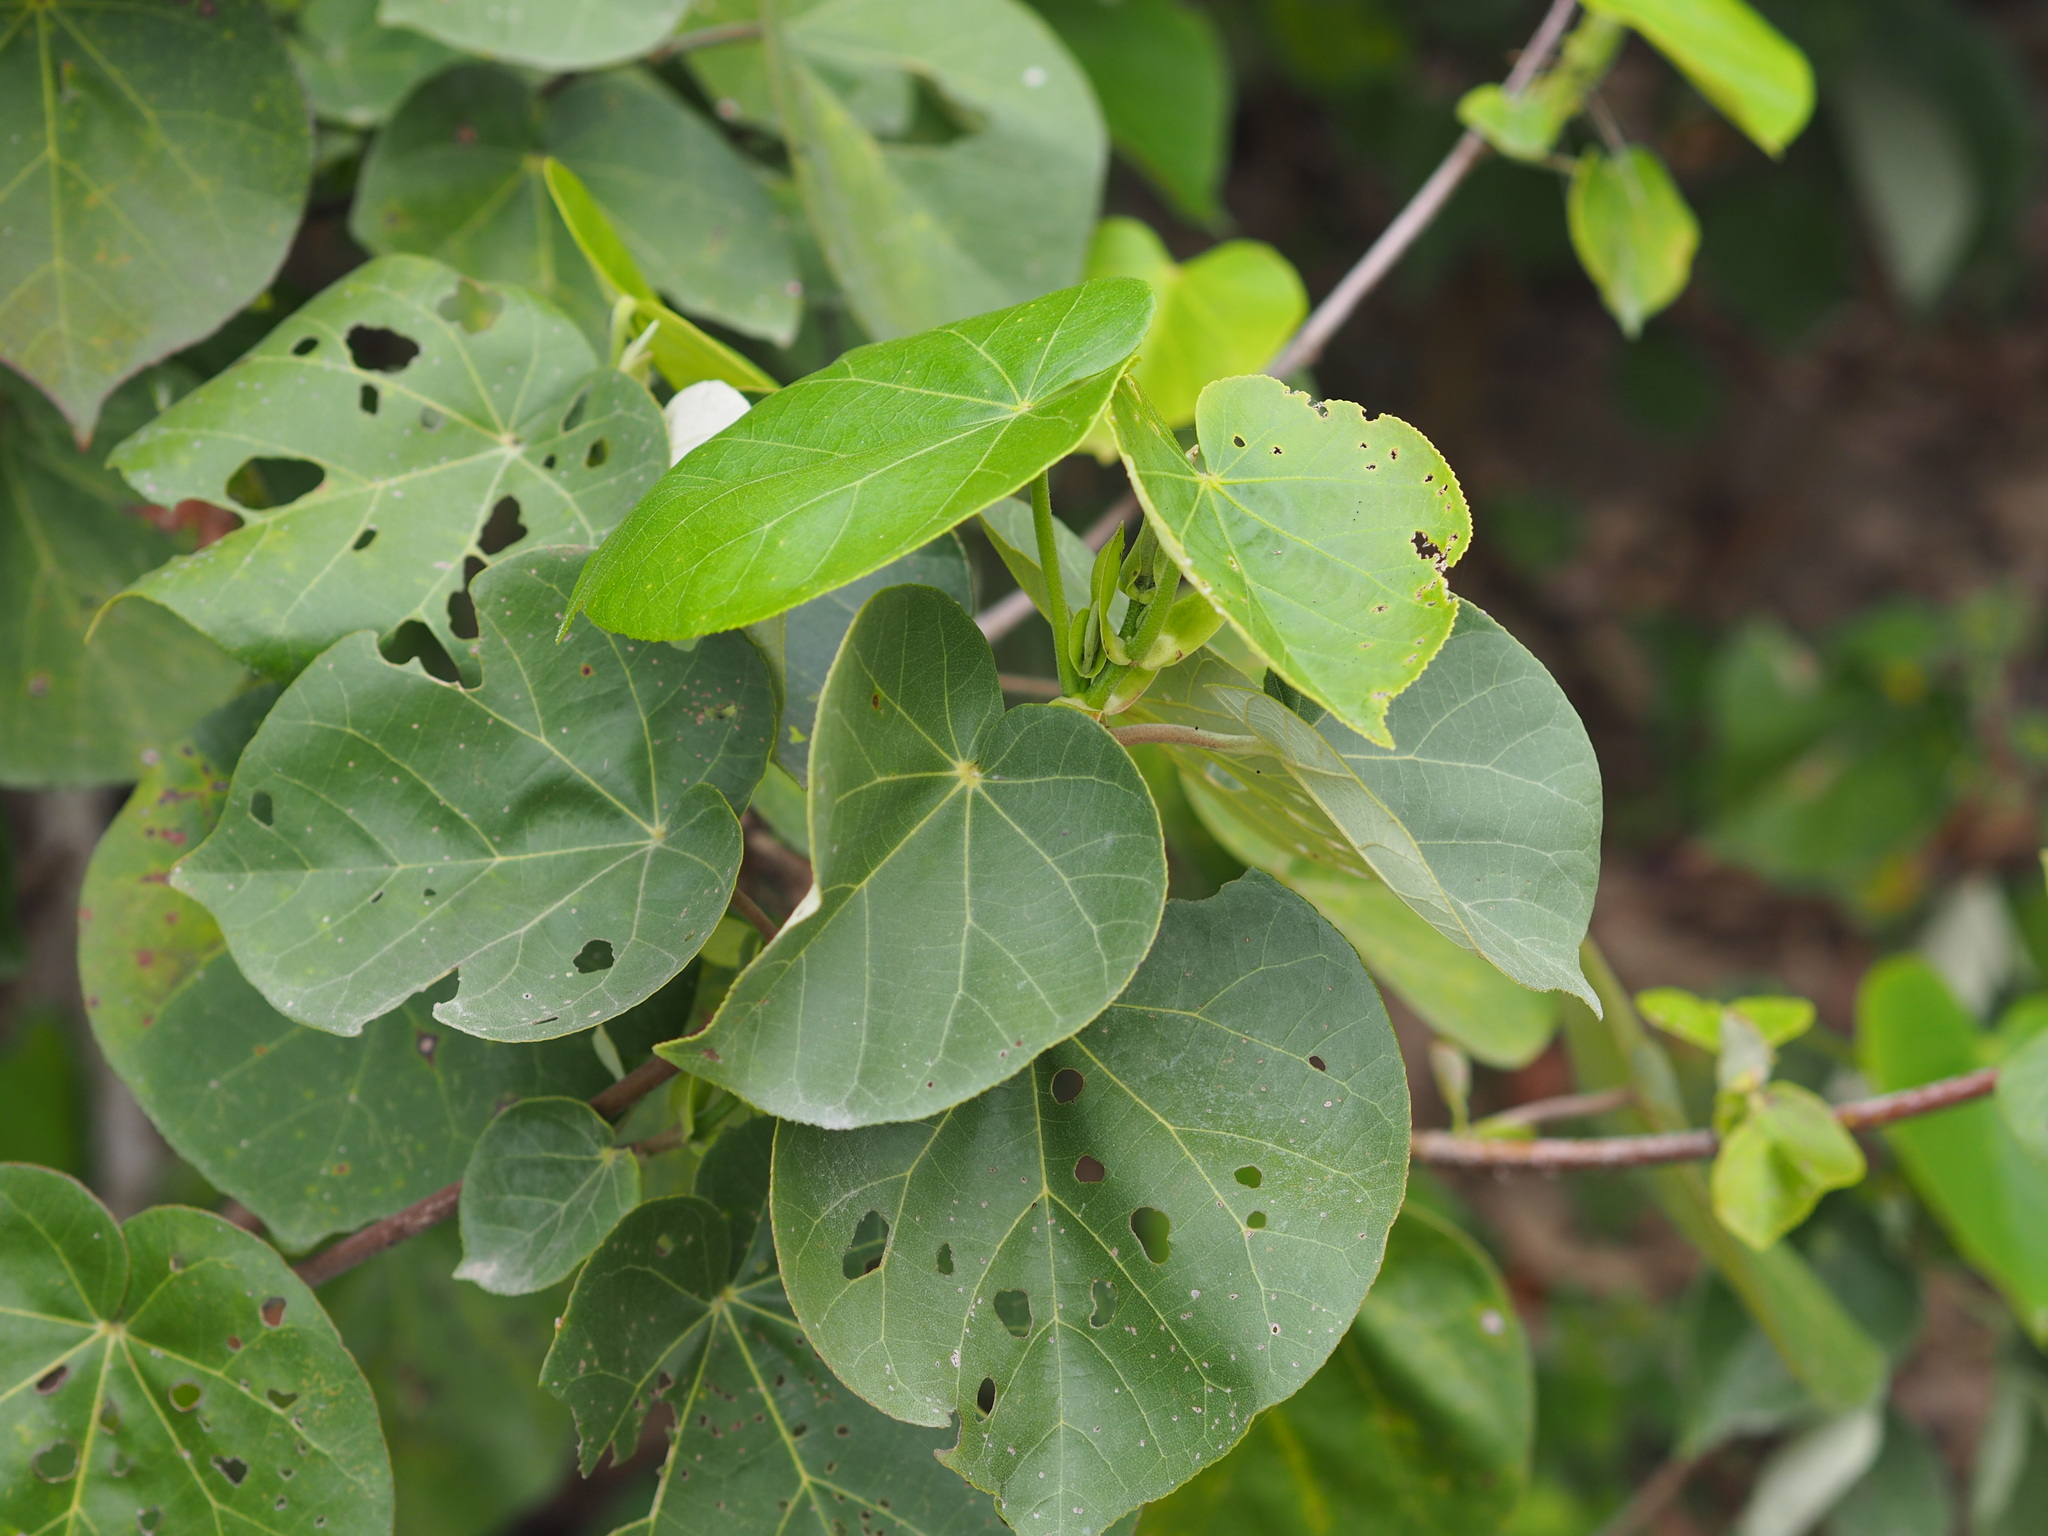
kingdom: Plantae
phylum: Tracheophyta
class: Magnoliopsida
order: Malvales
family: Malvaceae
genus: Talipariti
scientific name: Talipariti tiliaceum
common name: Sea hibiscus
